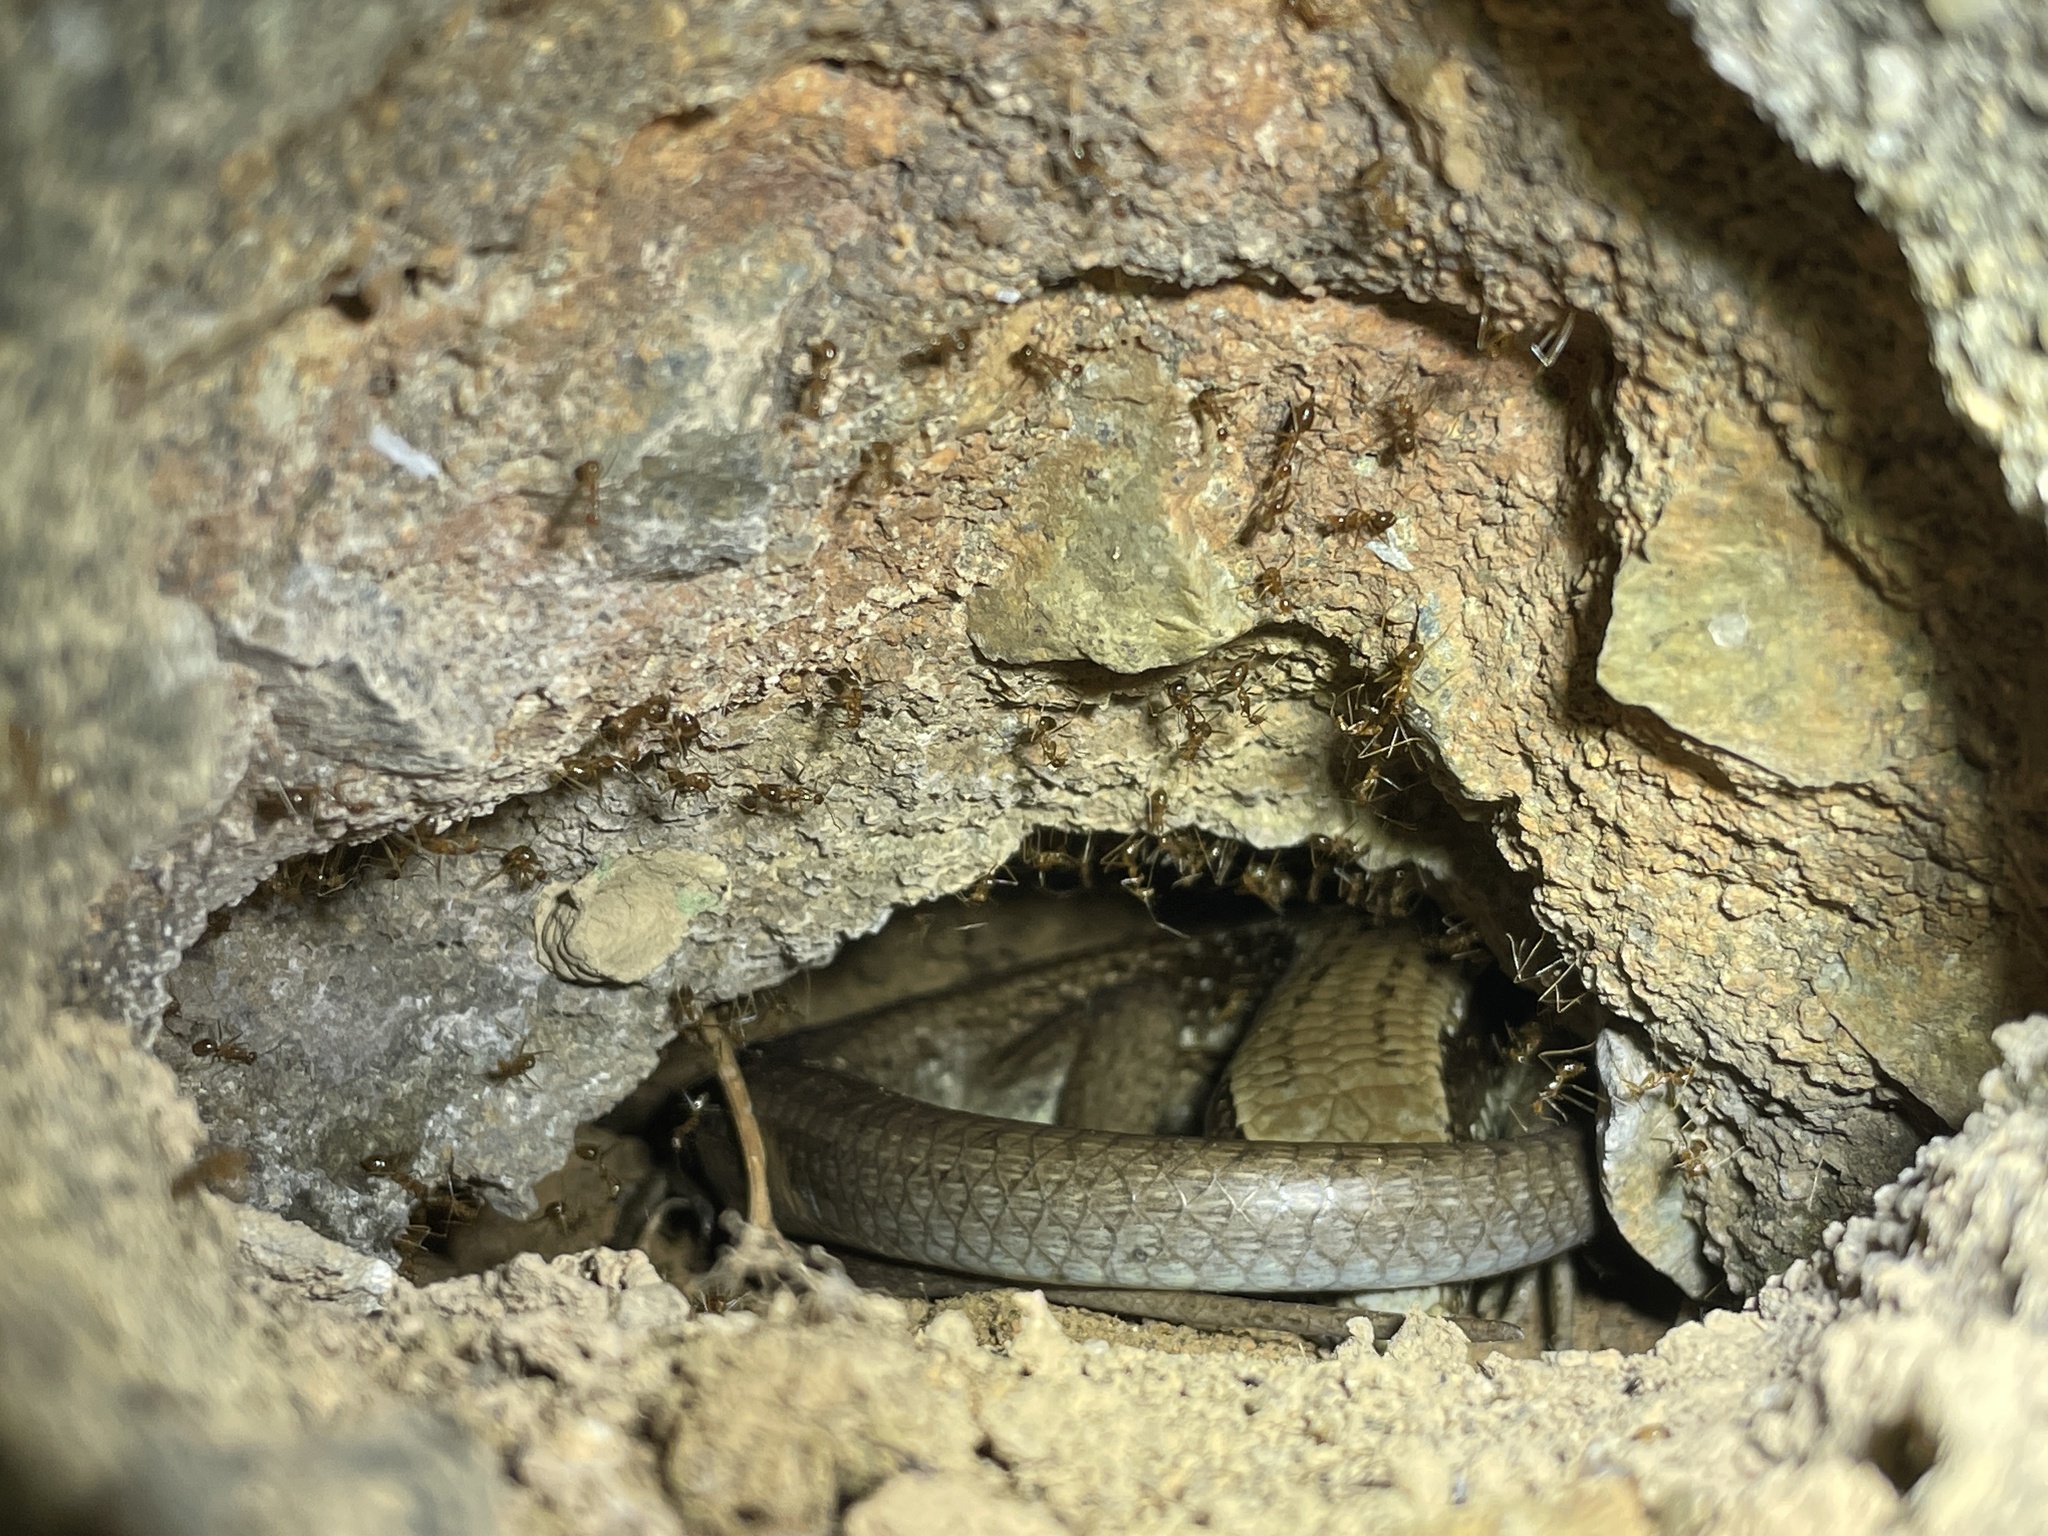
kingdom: Animalia
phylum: Chordata
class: Squamata
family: Scincidae
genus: Eutropis
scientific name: Eutropis longicaudata
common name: Long-tailed sun skink
